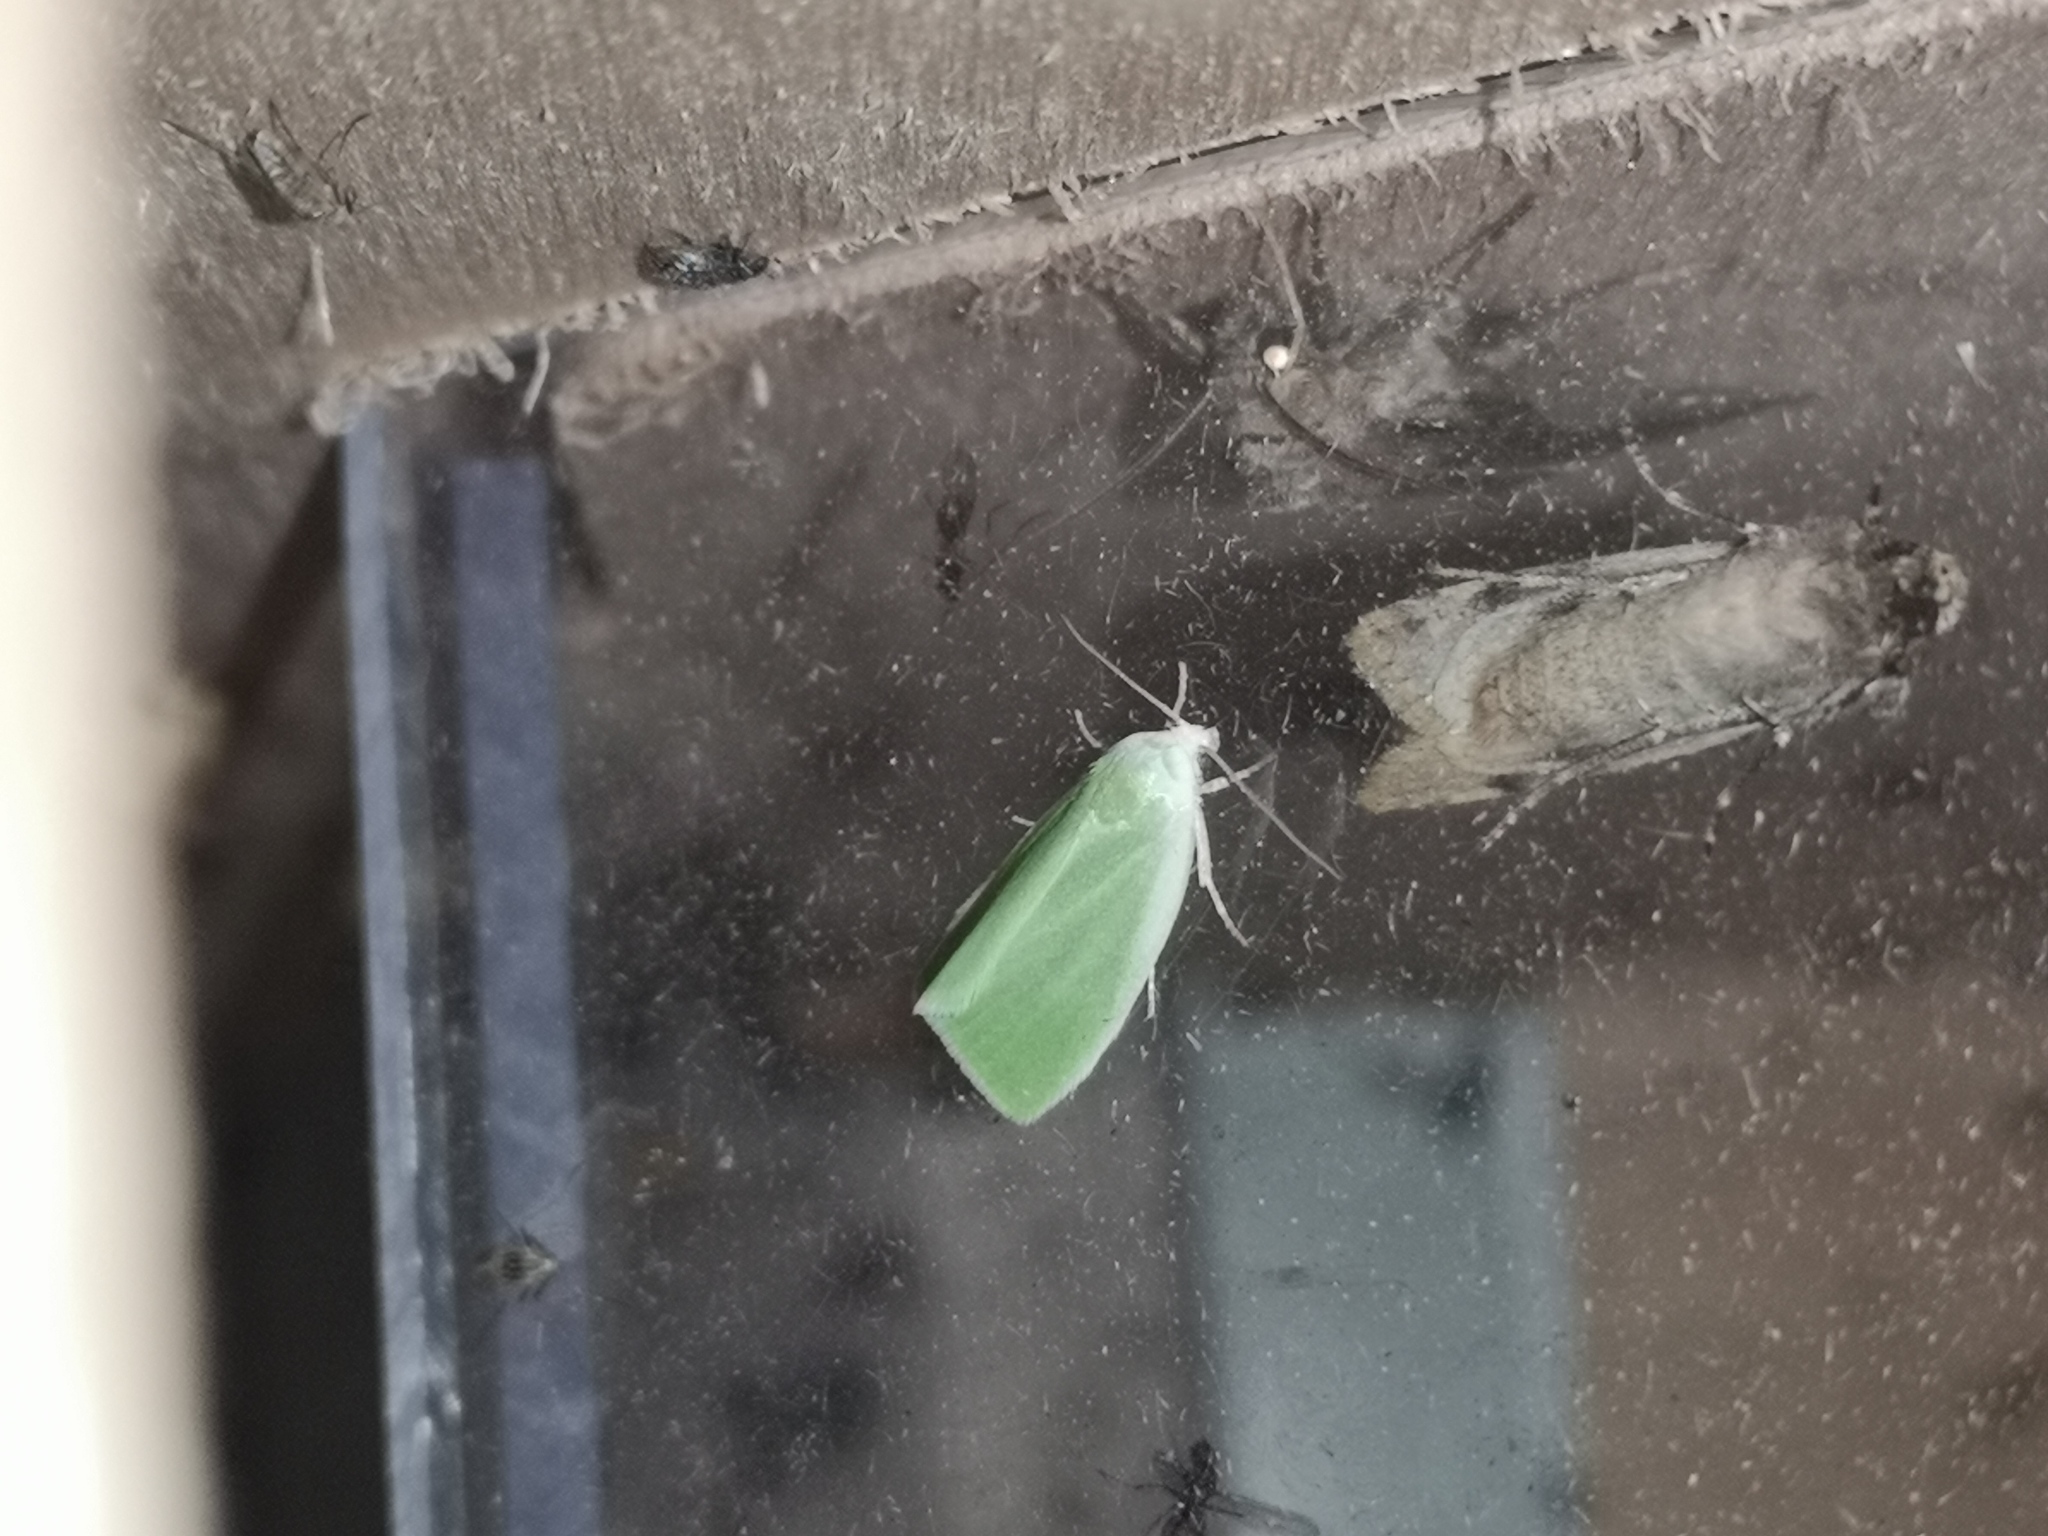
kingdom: Animalia
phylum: Arthropoda
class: Insecta
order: Lepidoptera
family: Nolidae
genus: Earias
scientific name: Earias clorana
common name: Cream-bordered green pea
